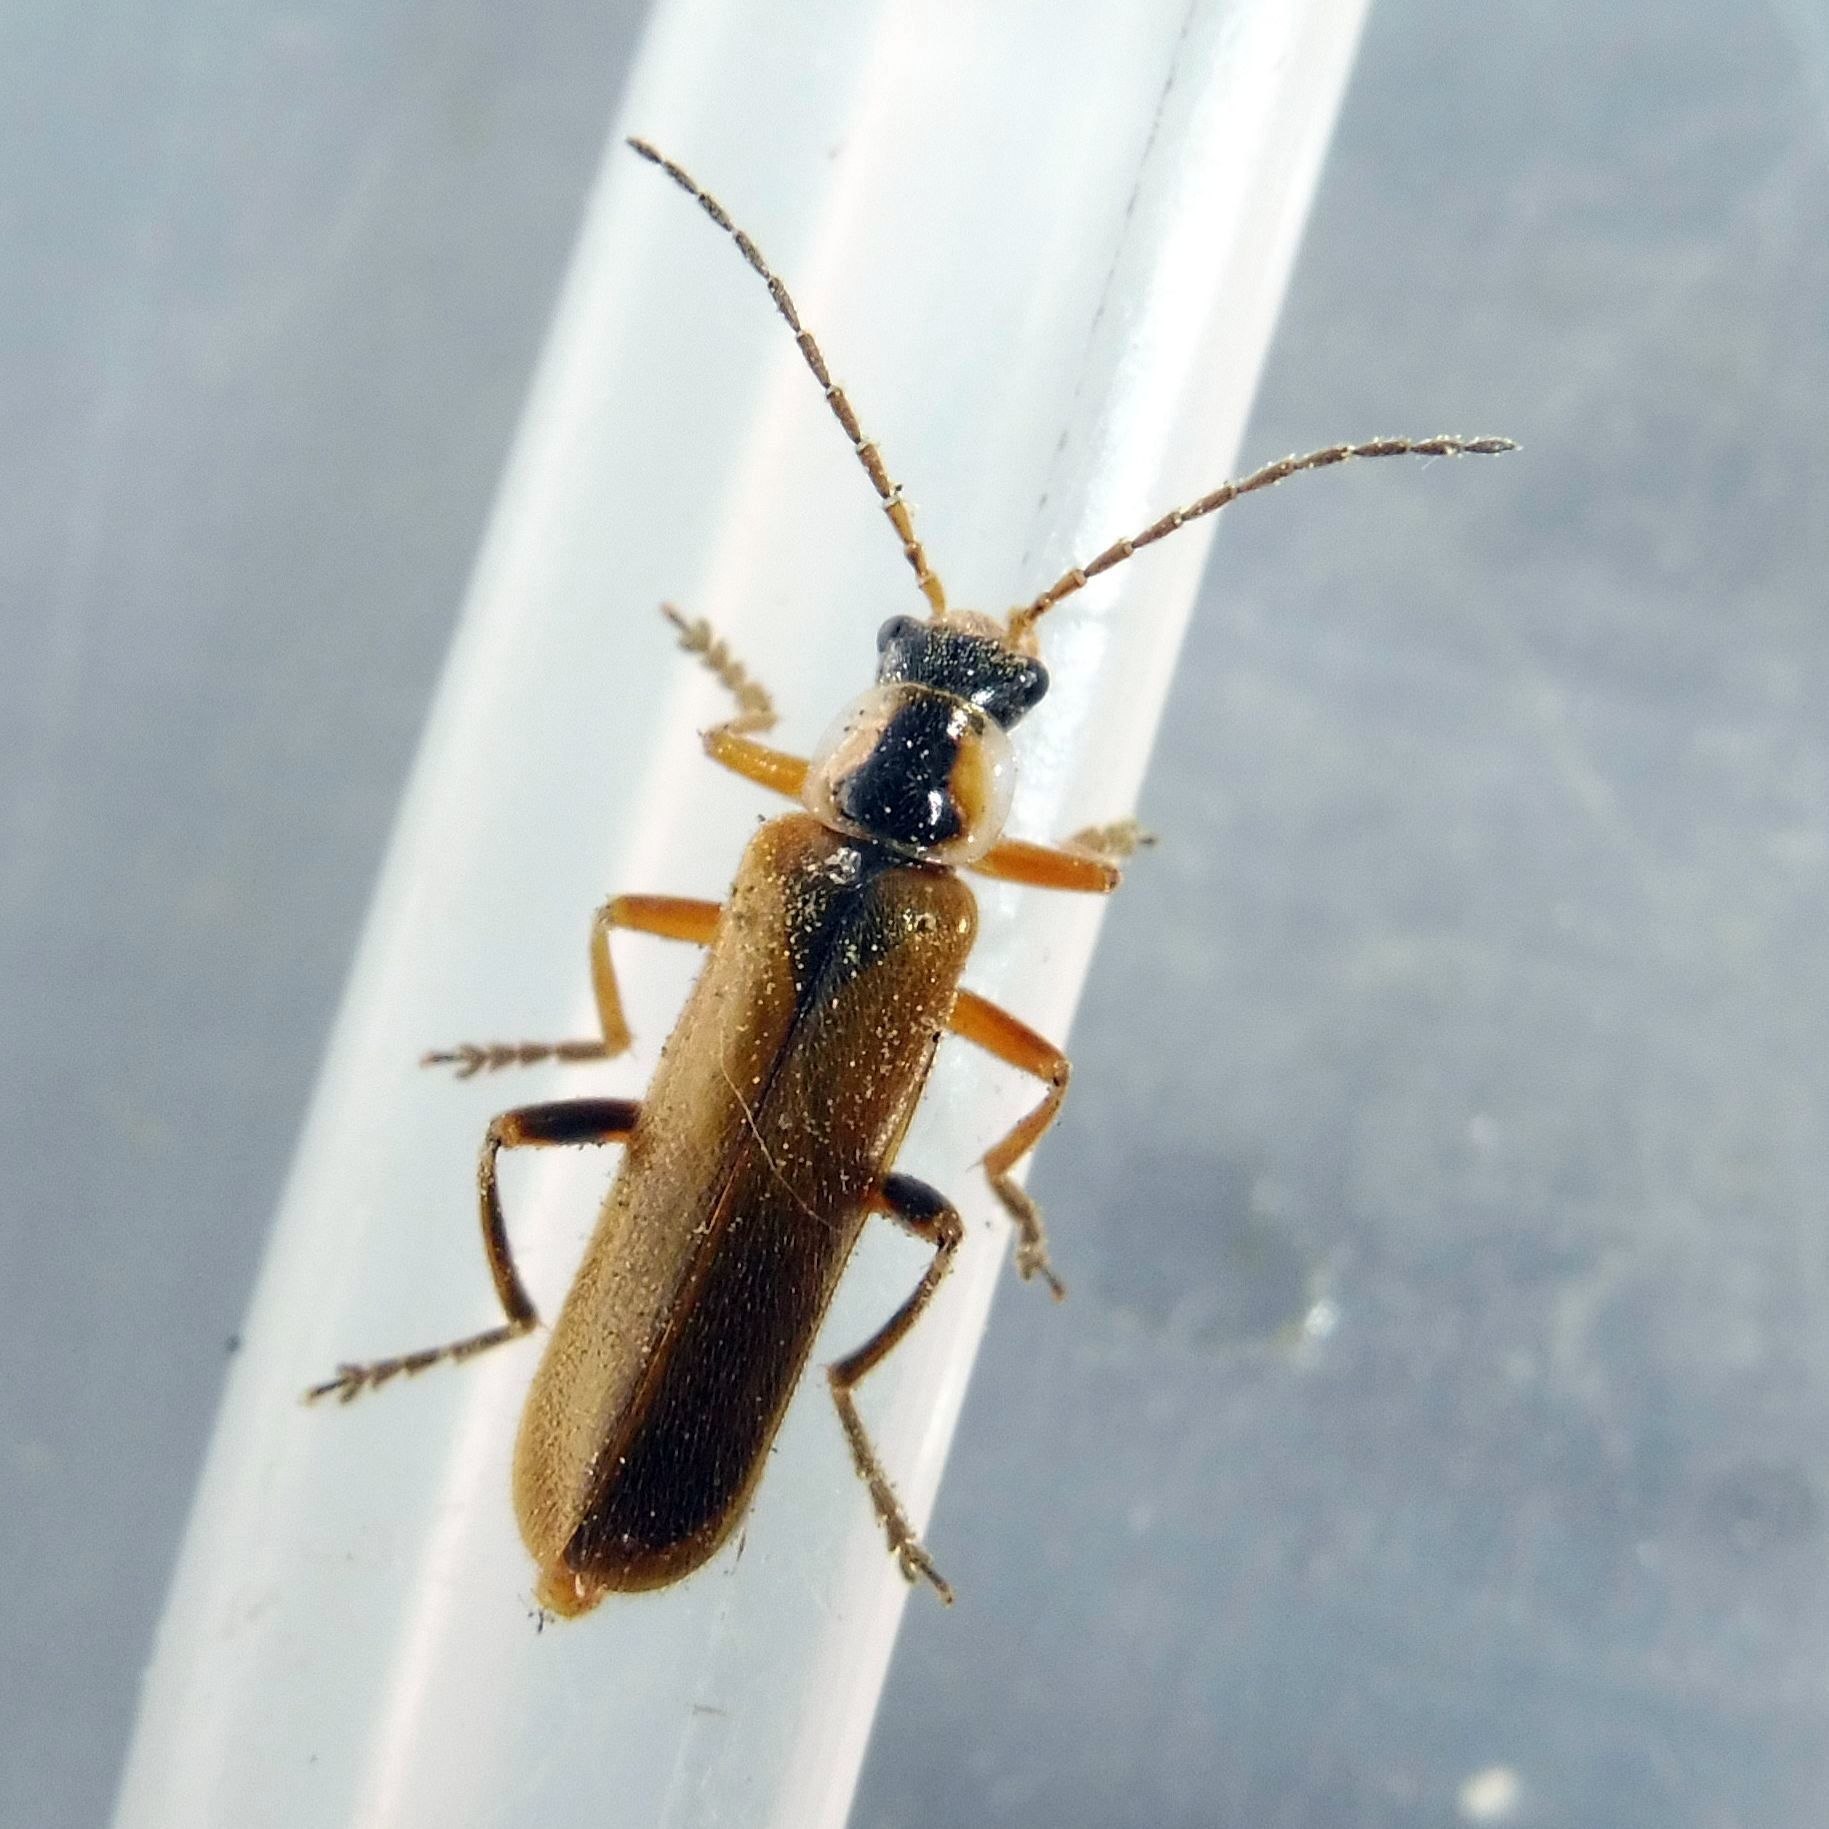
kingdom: Animalia
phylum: Arthropoda
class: Insecta
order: Coleoptera
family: Cantharidae
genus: Cantharis
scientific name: Cantharis decipiens
